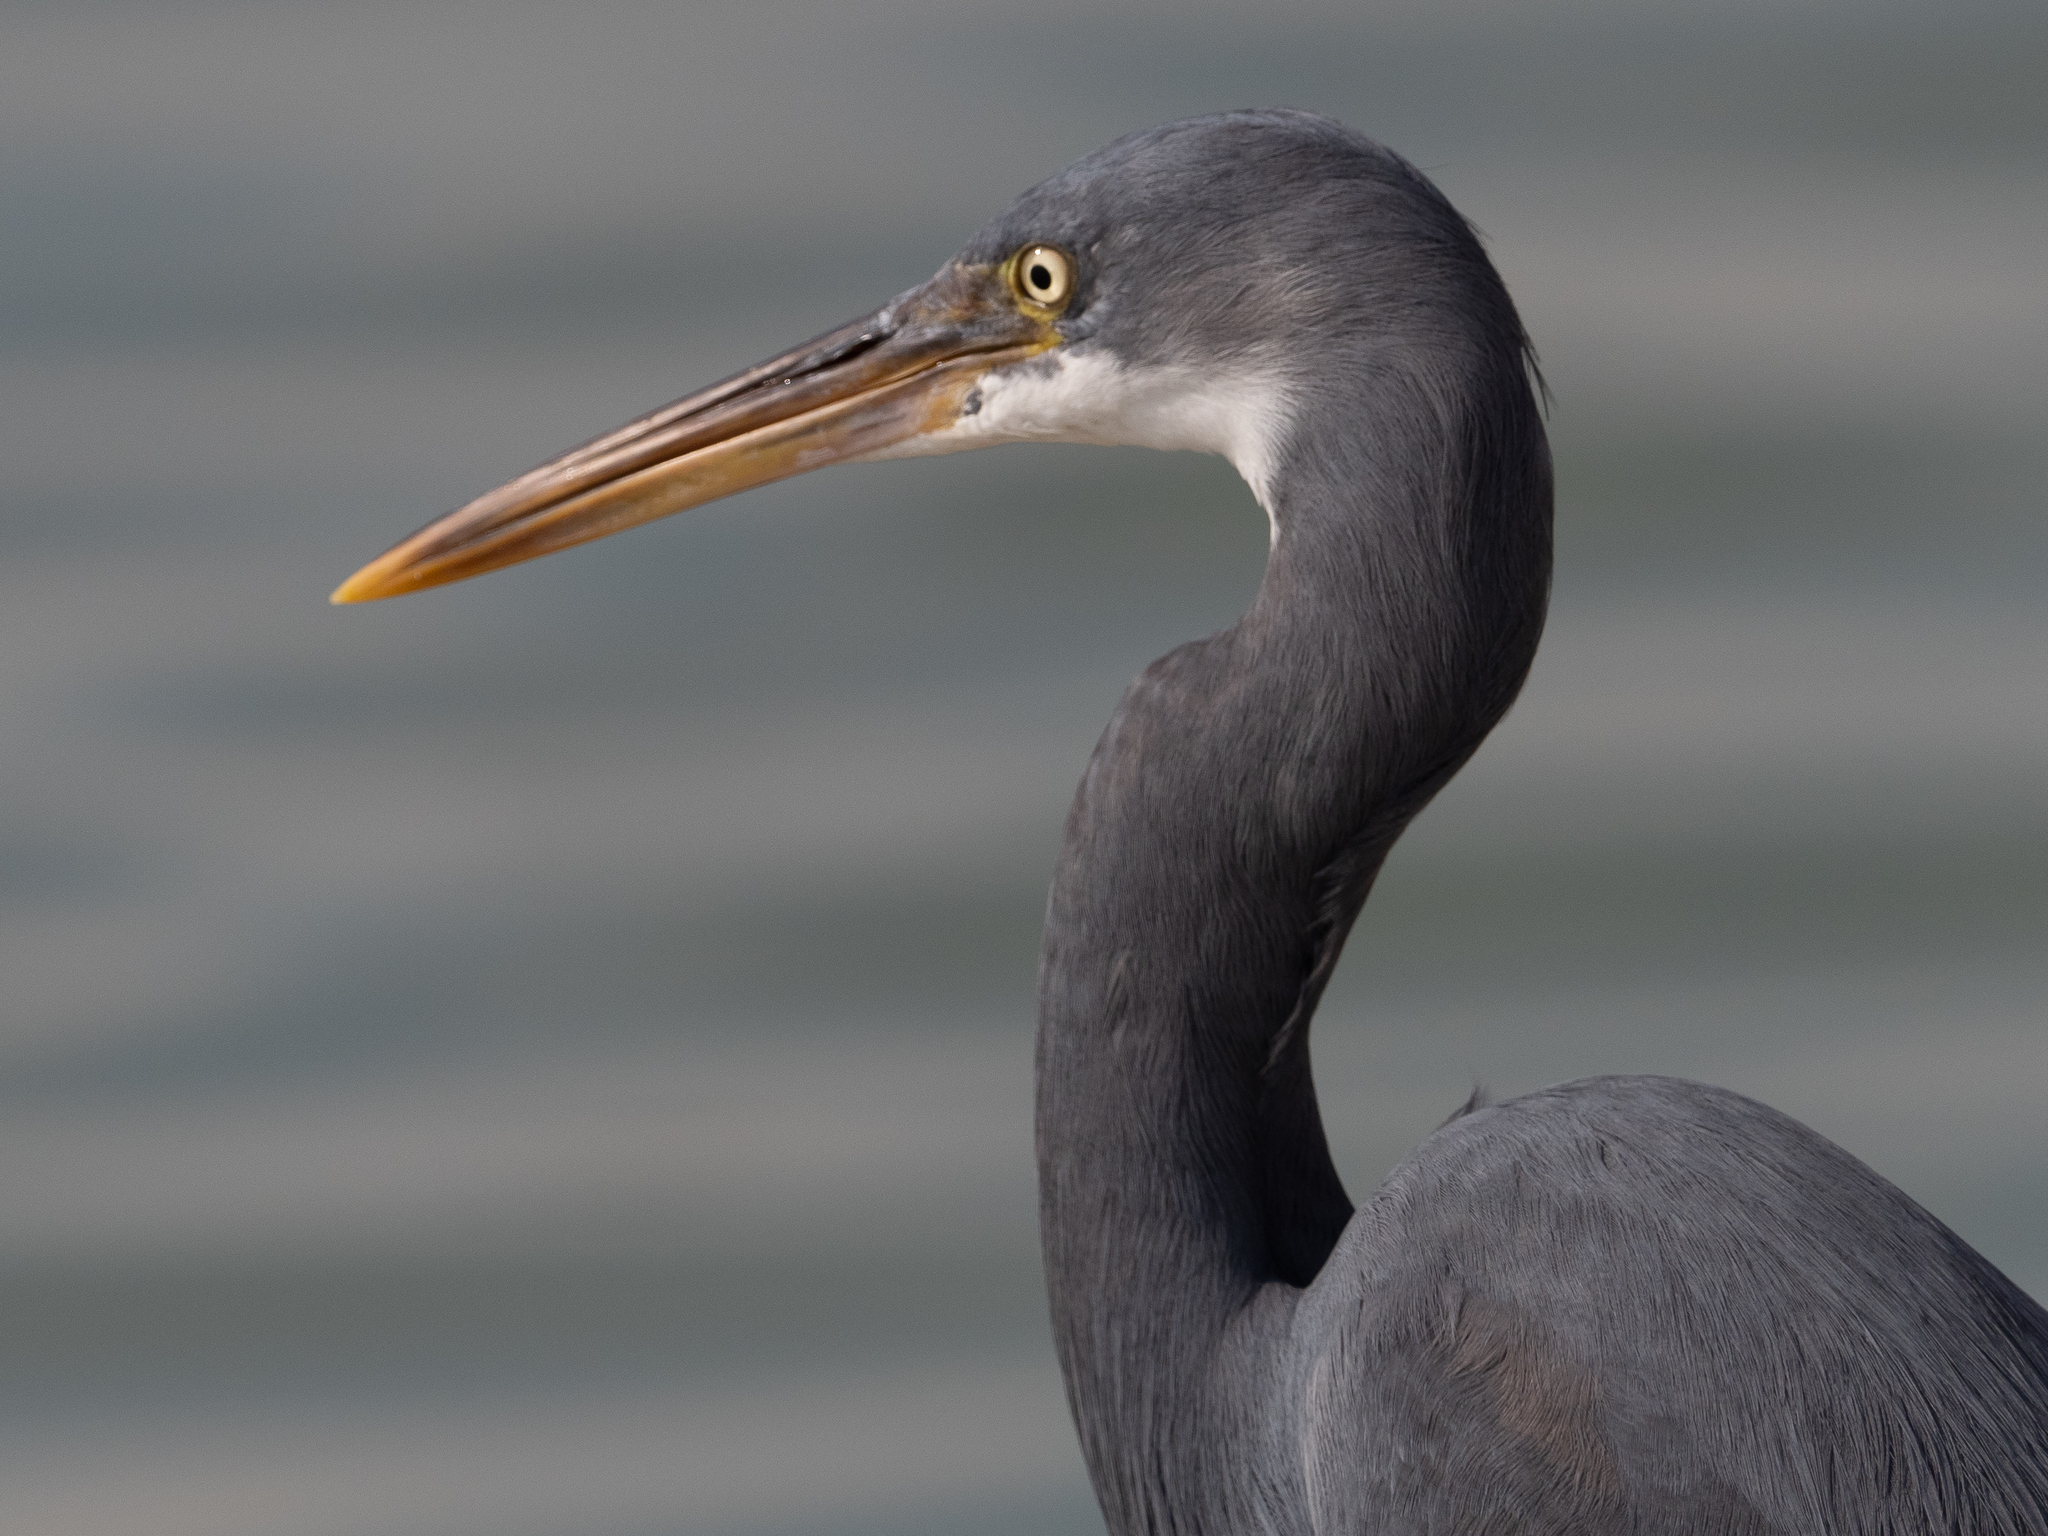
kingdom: Animalia
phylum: Chordata
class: Aves
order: Pelecaniformes
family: Ardeidae
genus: Egretta
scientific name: Egretta gularis
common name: Western reef-heron
